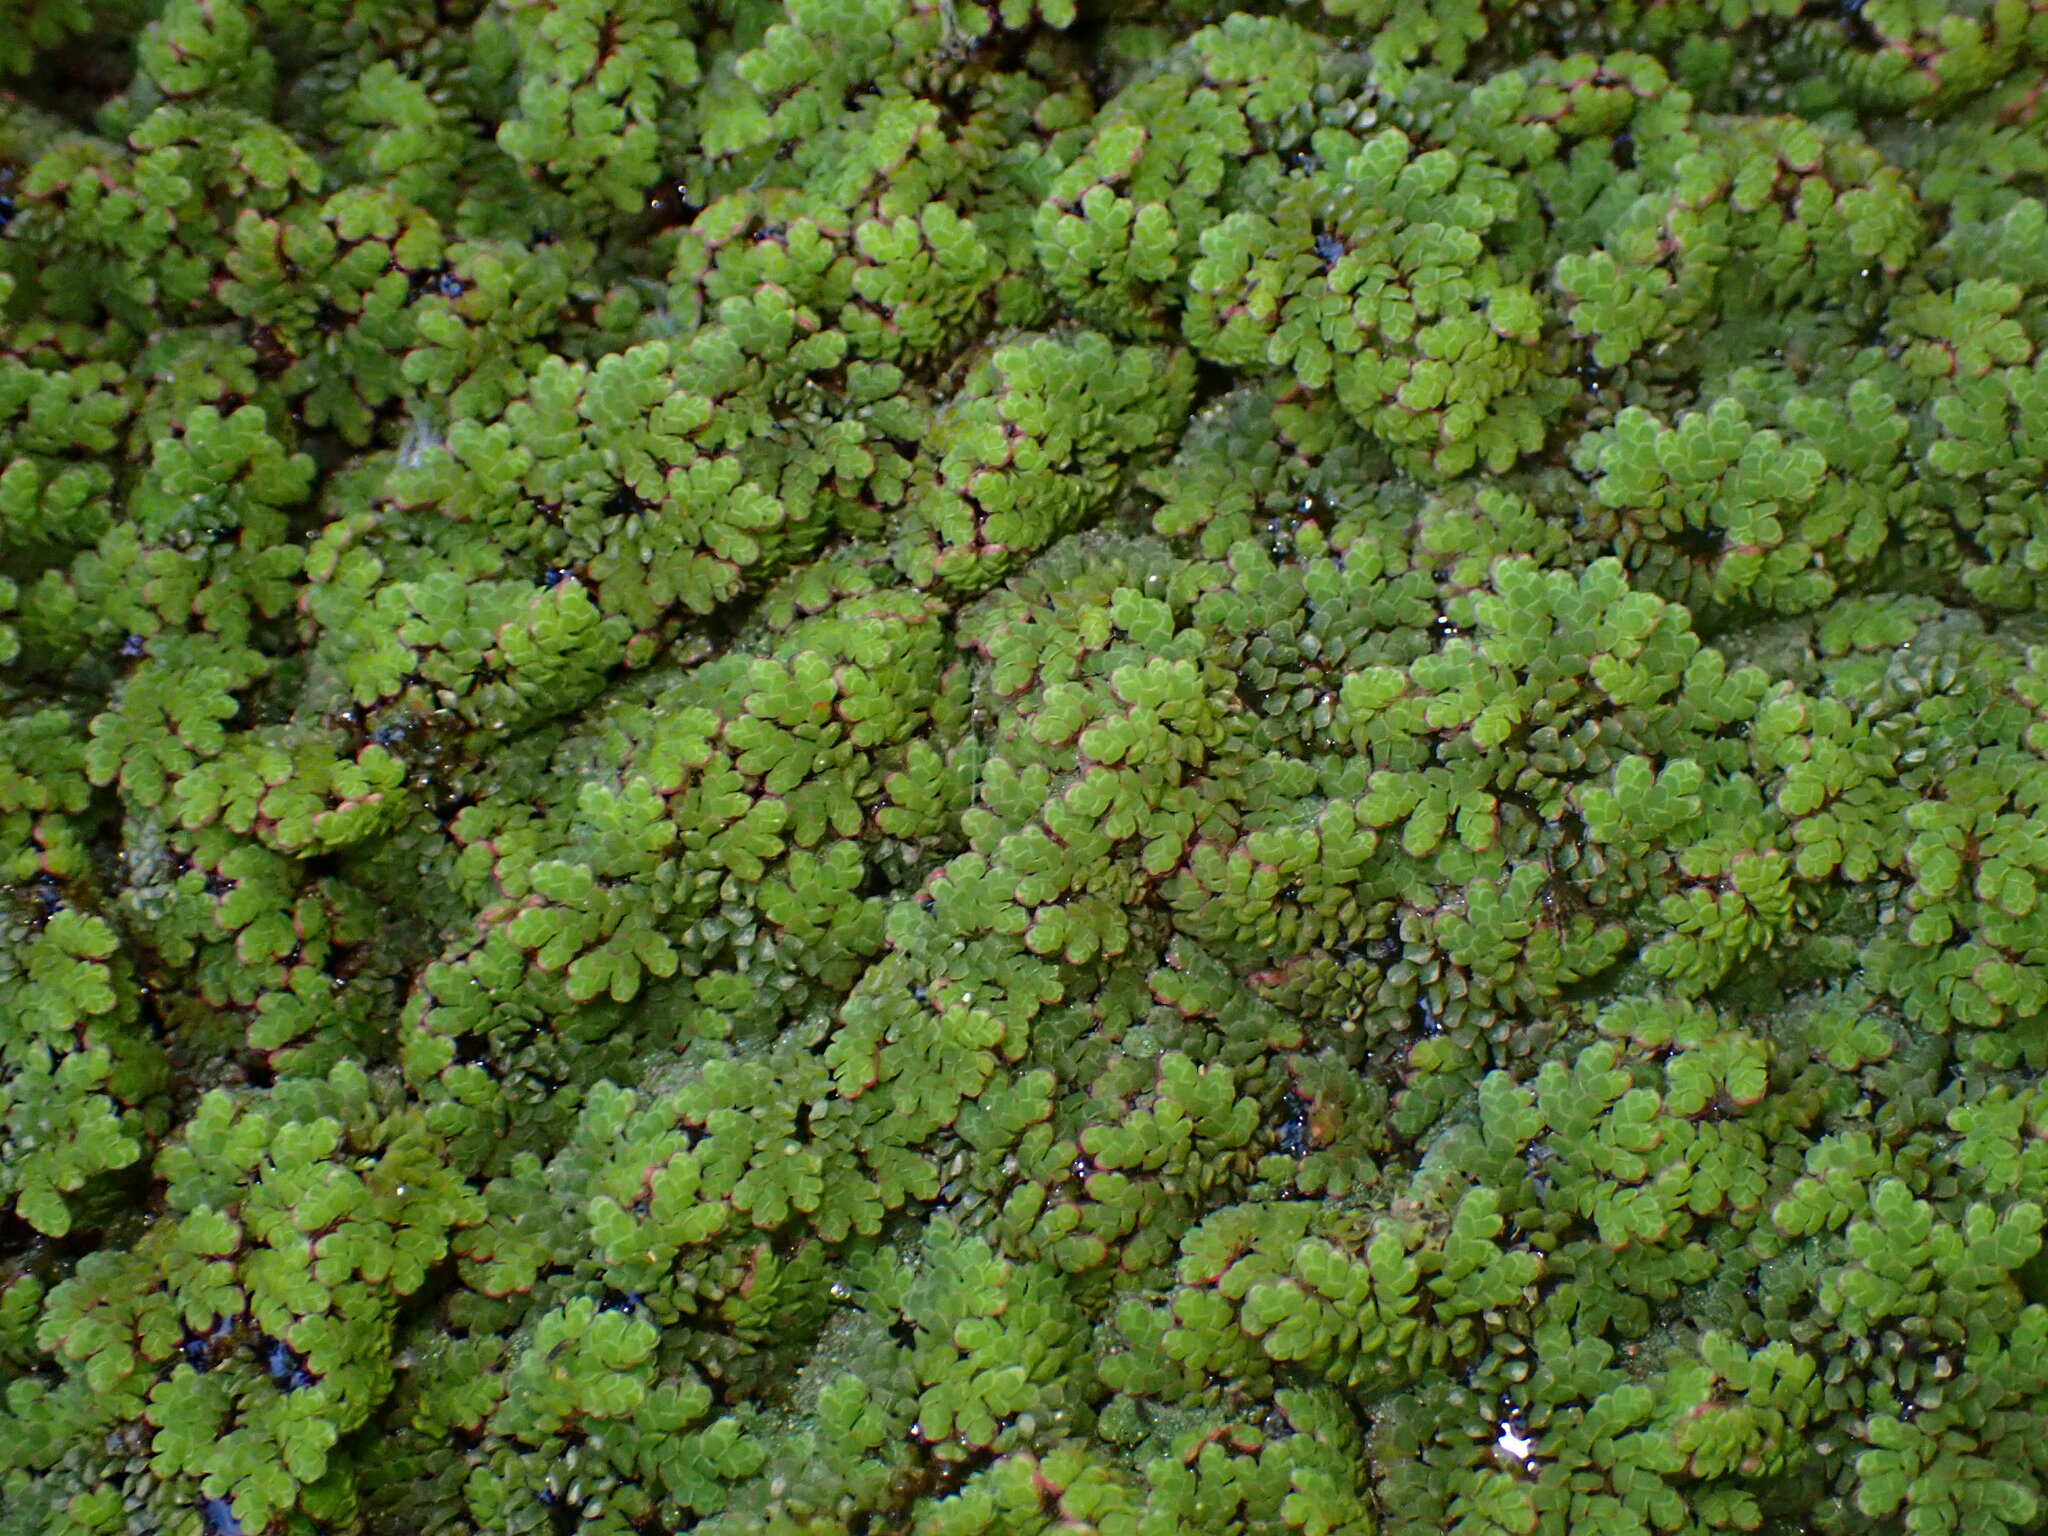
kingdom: Plantae
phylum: Tracheophyta
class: Polypodiopsida
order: Salviniales
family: Salviniaceae
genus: Azolla
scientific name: Azolla filiculoides
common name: Water fern
